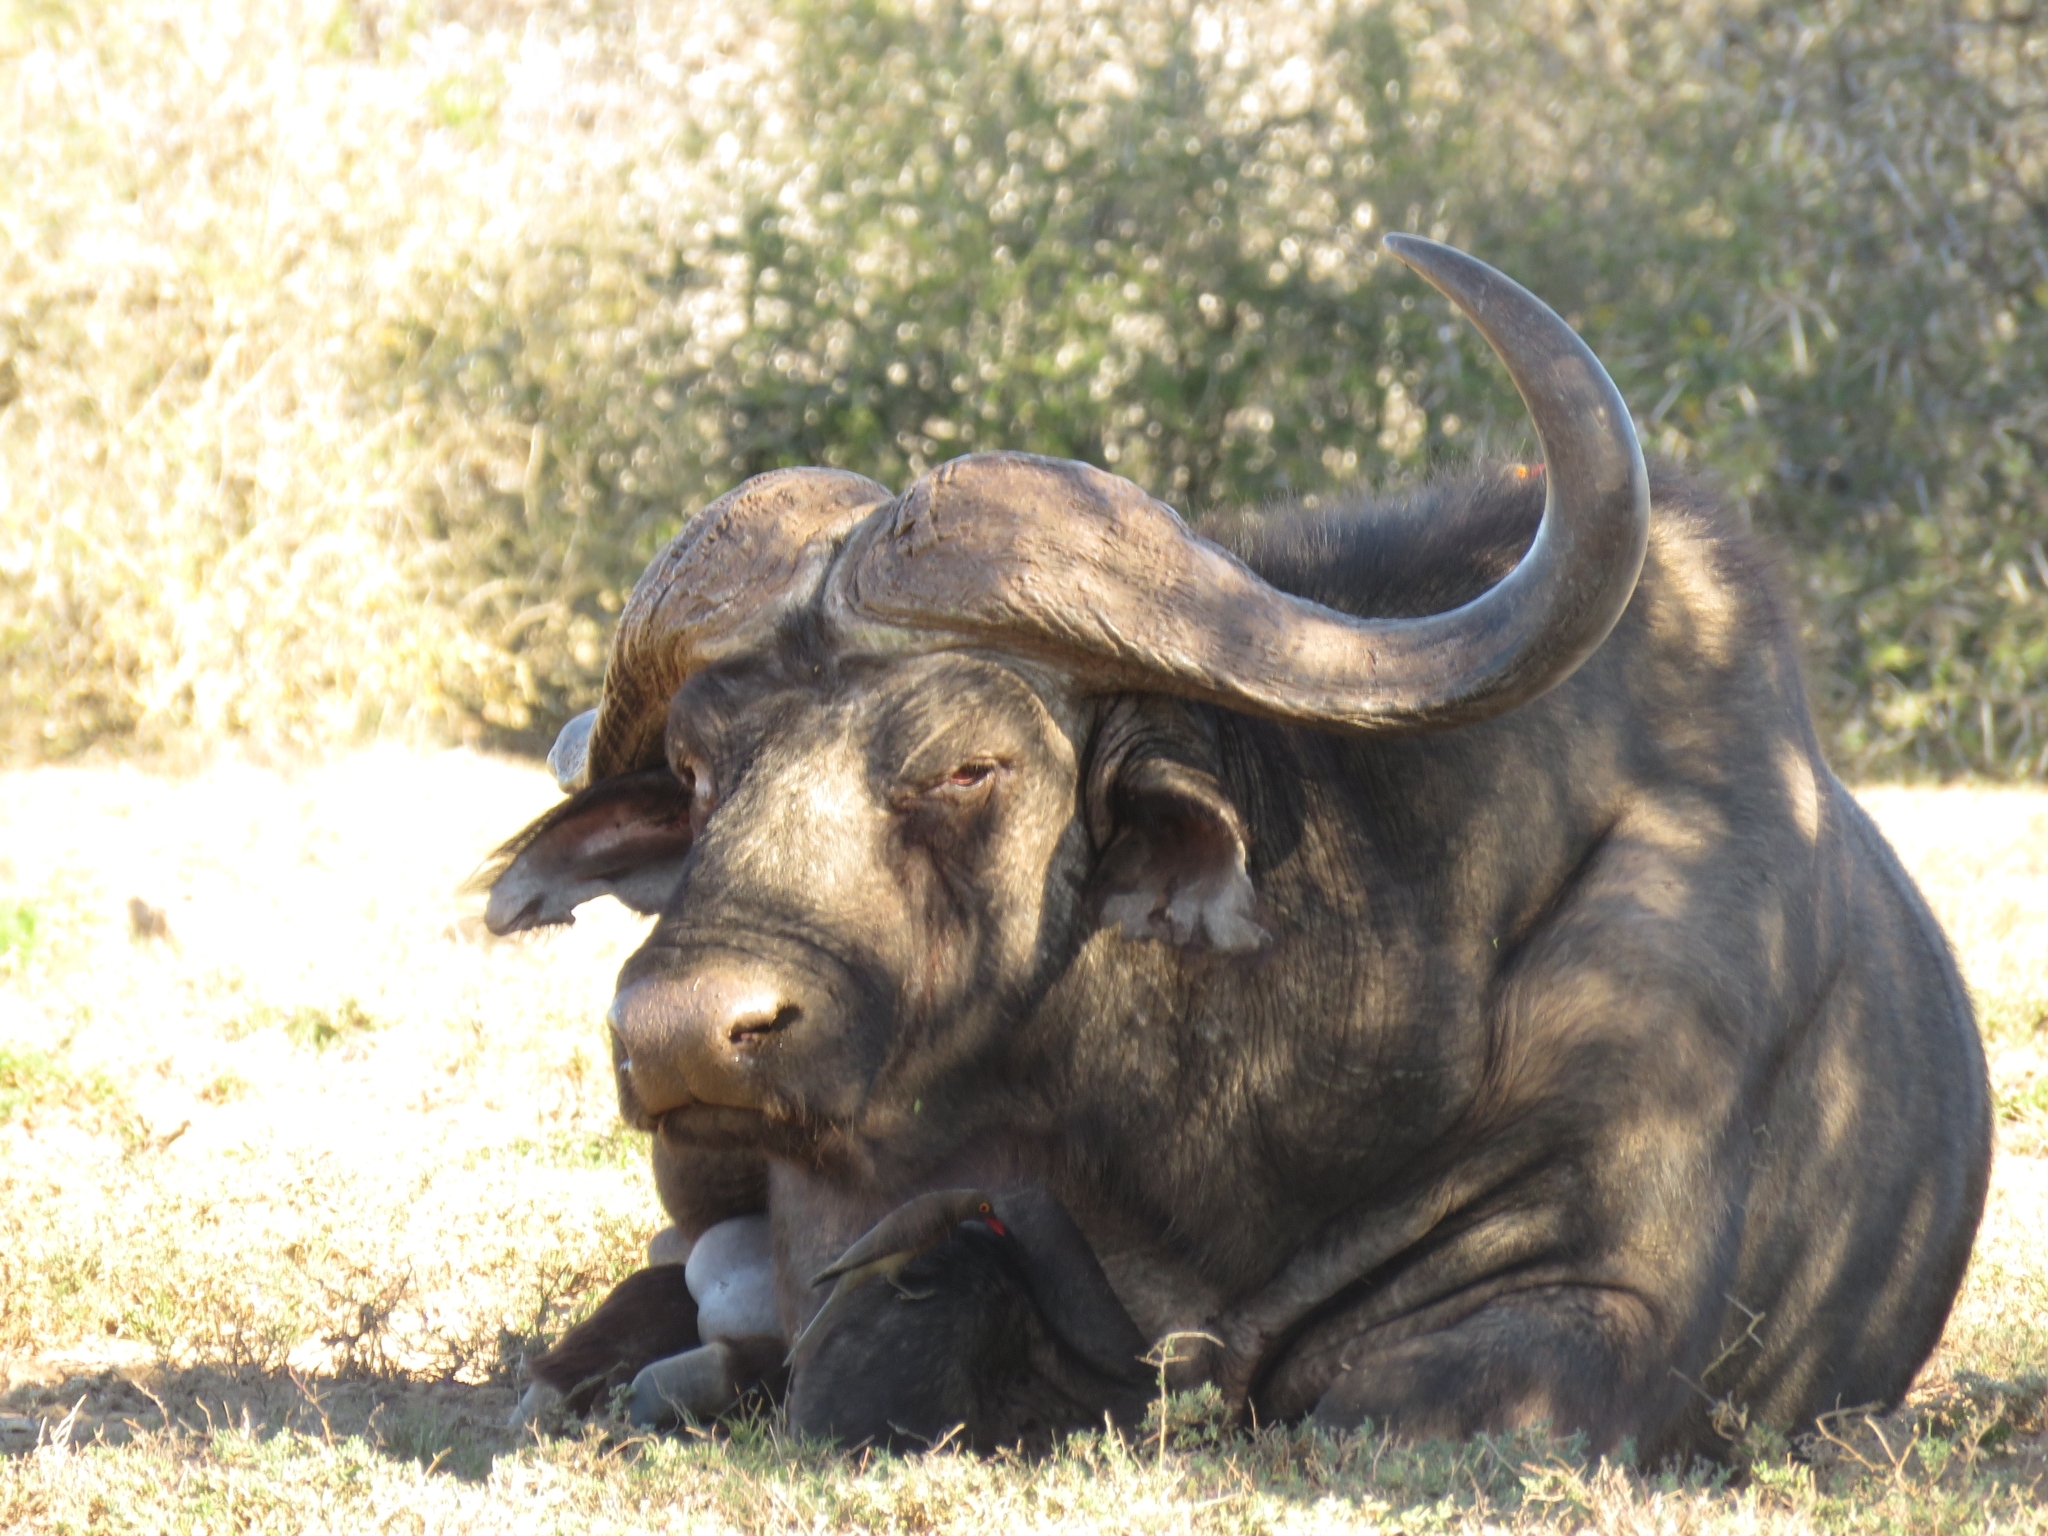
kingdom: Animalia
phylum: Chordata
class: Mammalia
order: Artiodactyla
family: Bovidae
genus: Syncerus
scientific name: Syncerus caffer
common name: African buffalo
